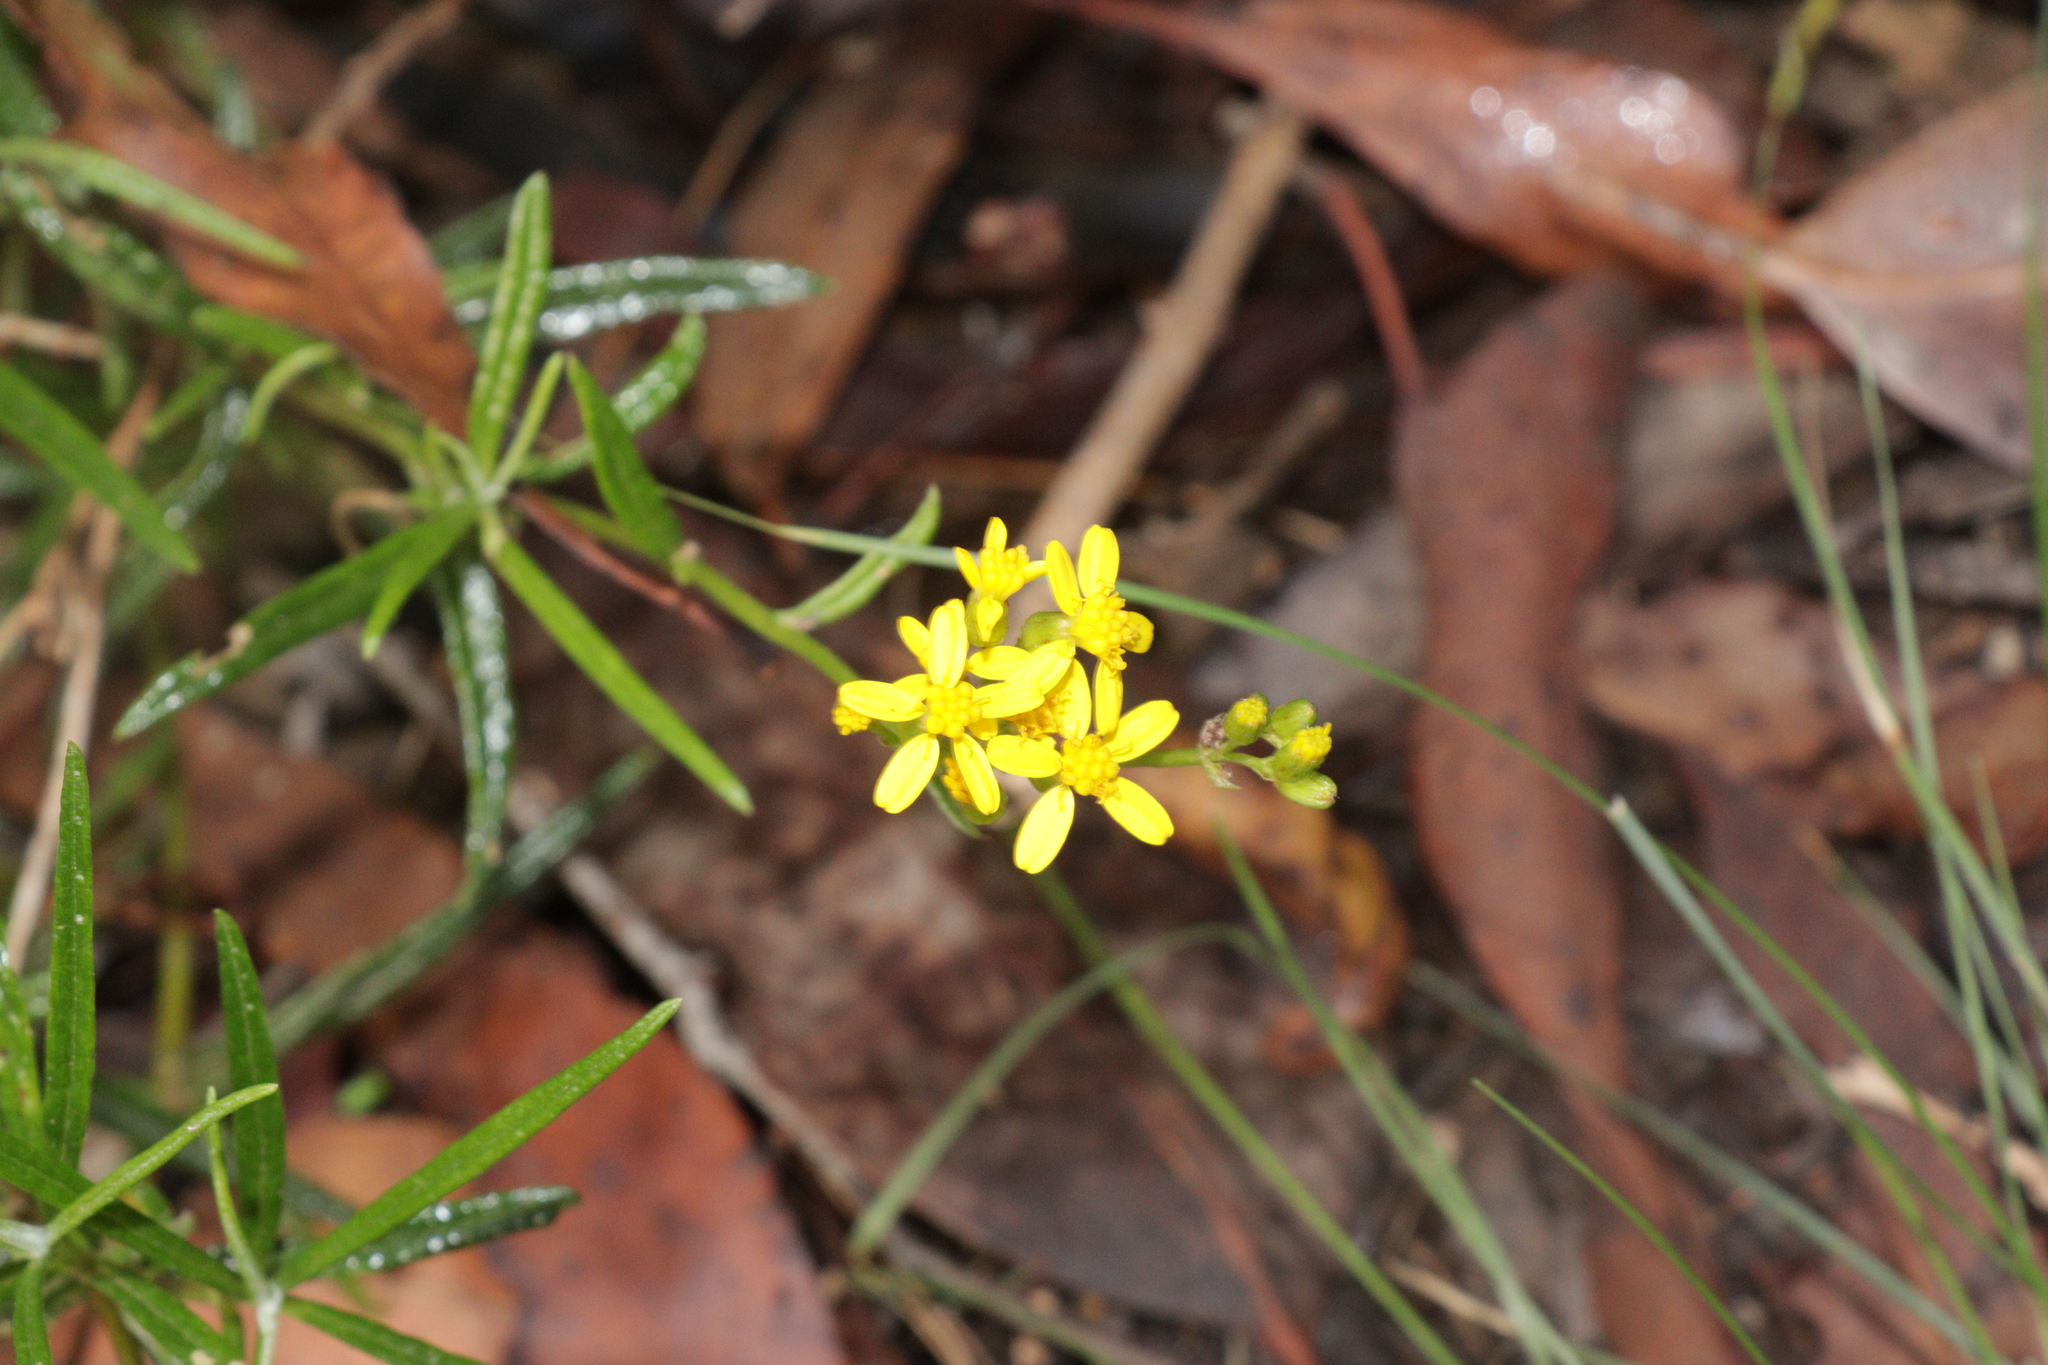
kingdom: Plantae
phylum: Tracheophyta
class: Magnoliopsida
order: Asterales
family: Asteraceae
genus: Senecio
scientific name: Senecio linearifolius
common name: Fireweed groundsel
